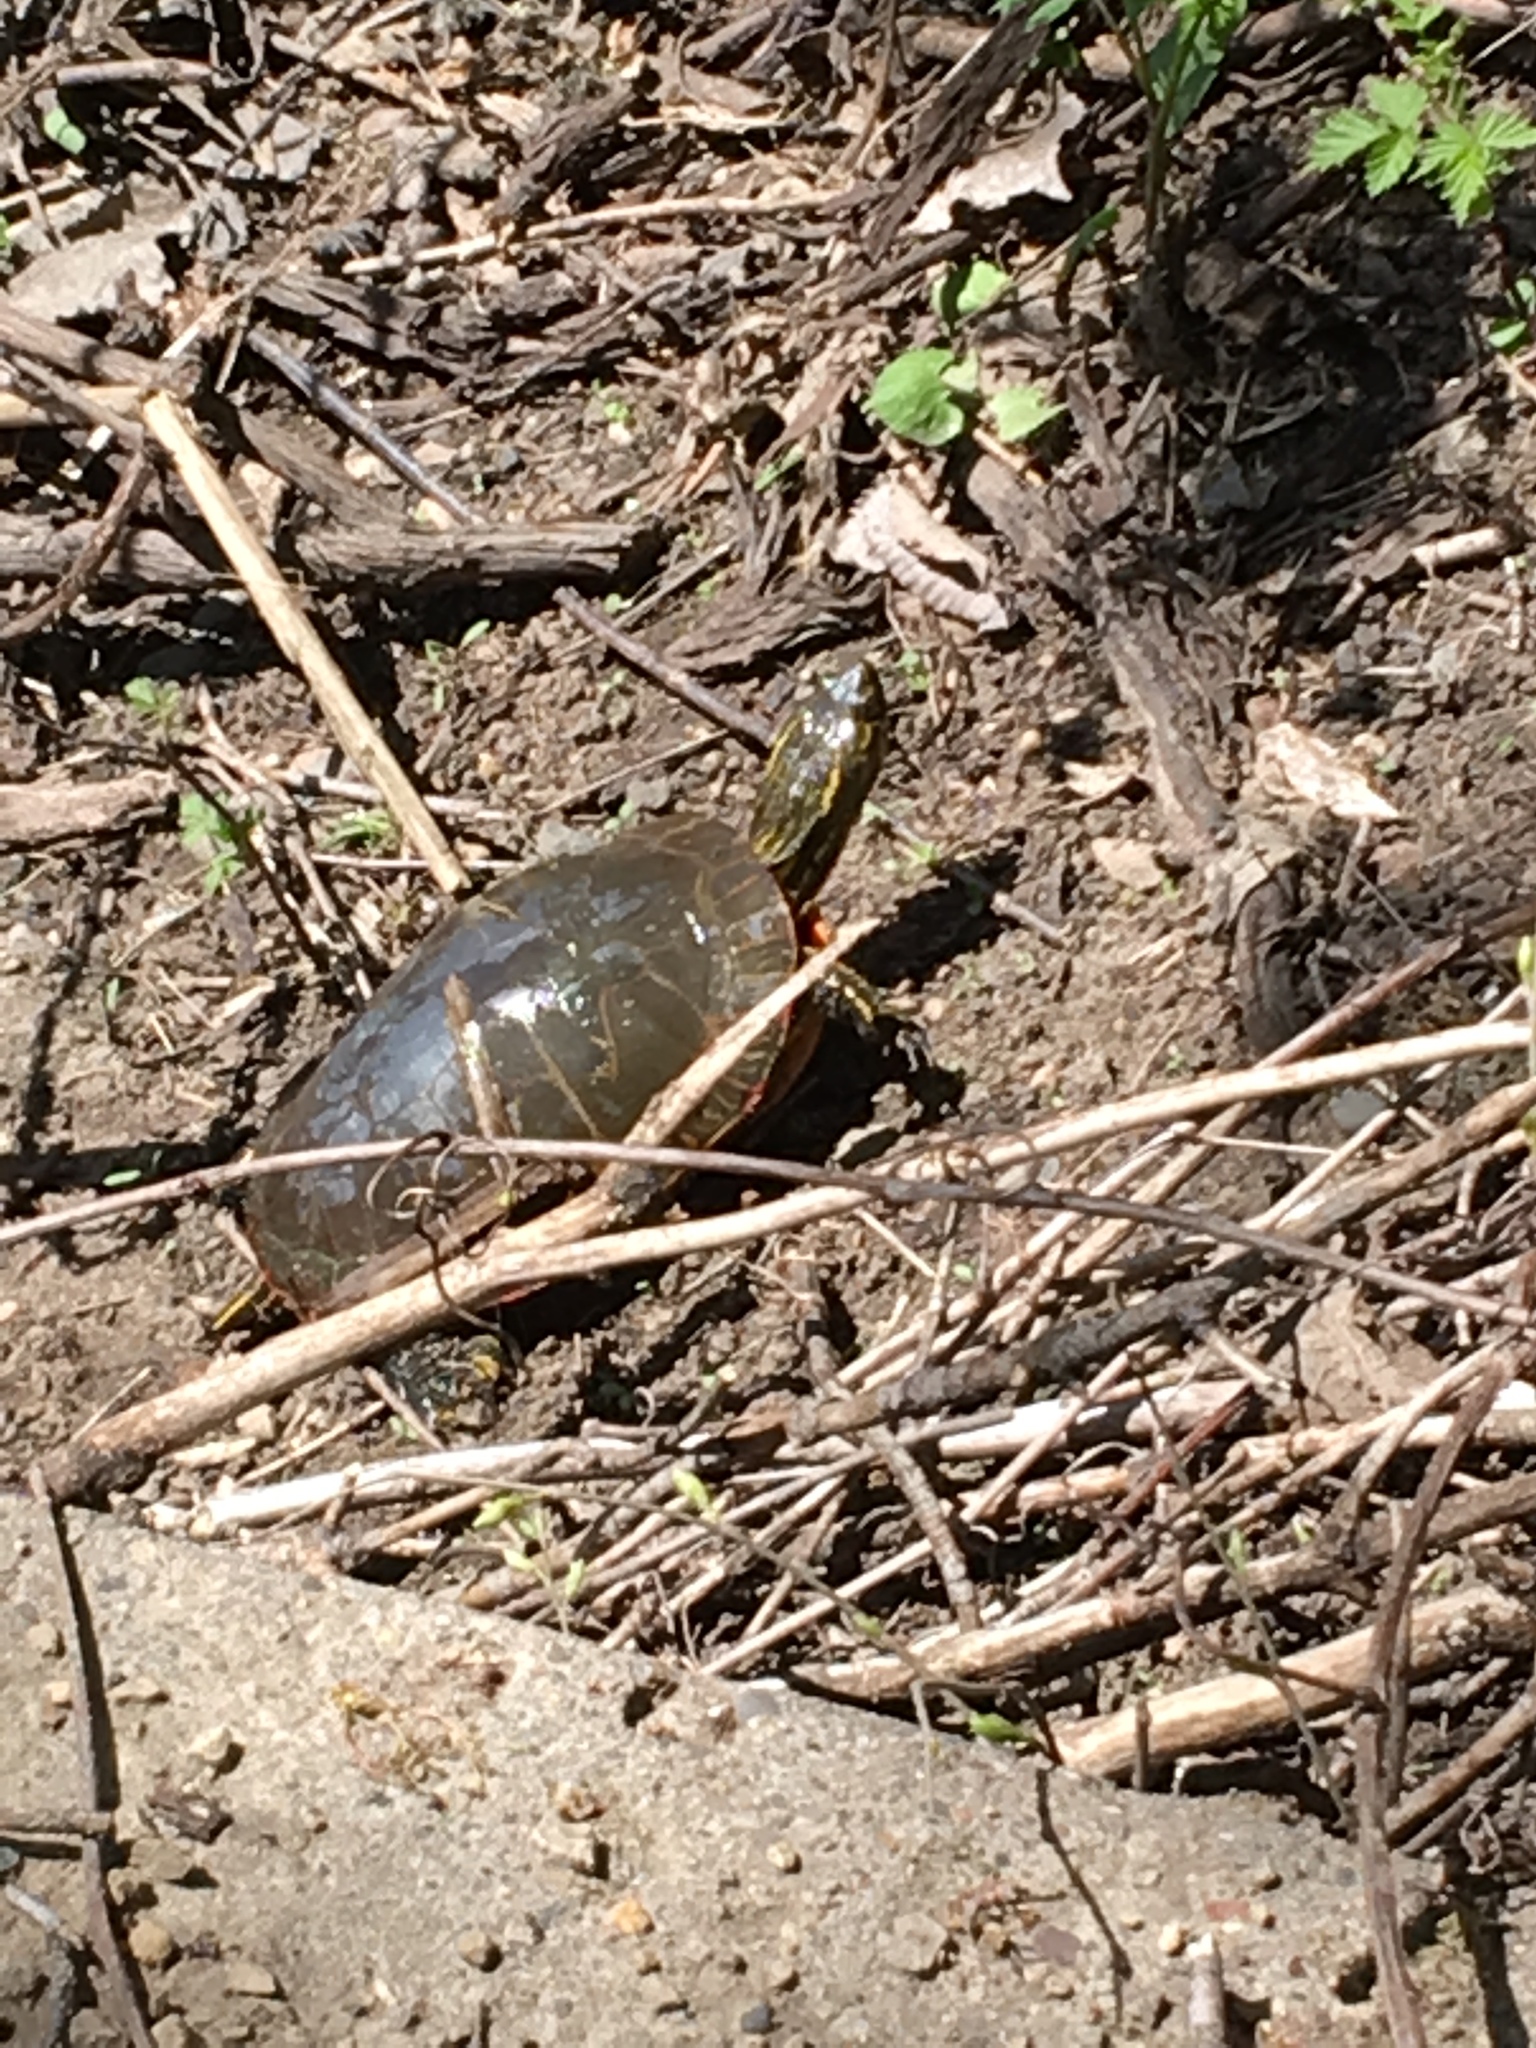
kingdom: Animalia
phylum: Chordata
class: Testudines
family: Emydidae
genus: Chrysemys
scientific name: Chrysemys picta
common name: Painted turtle
